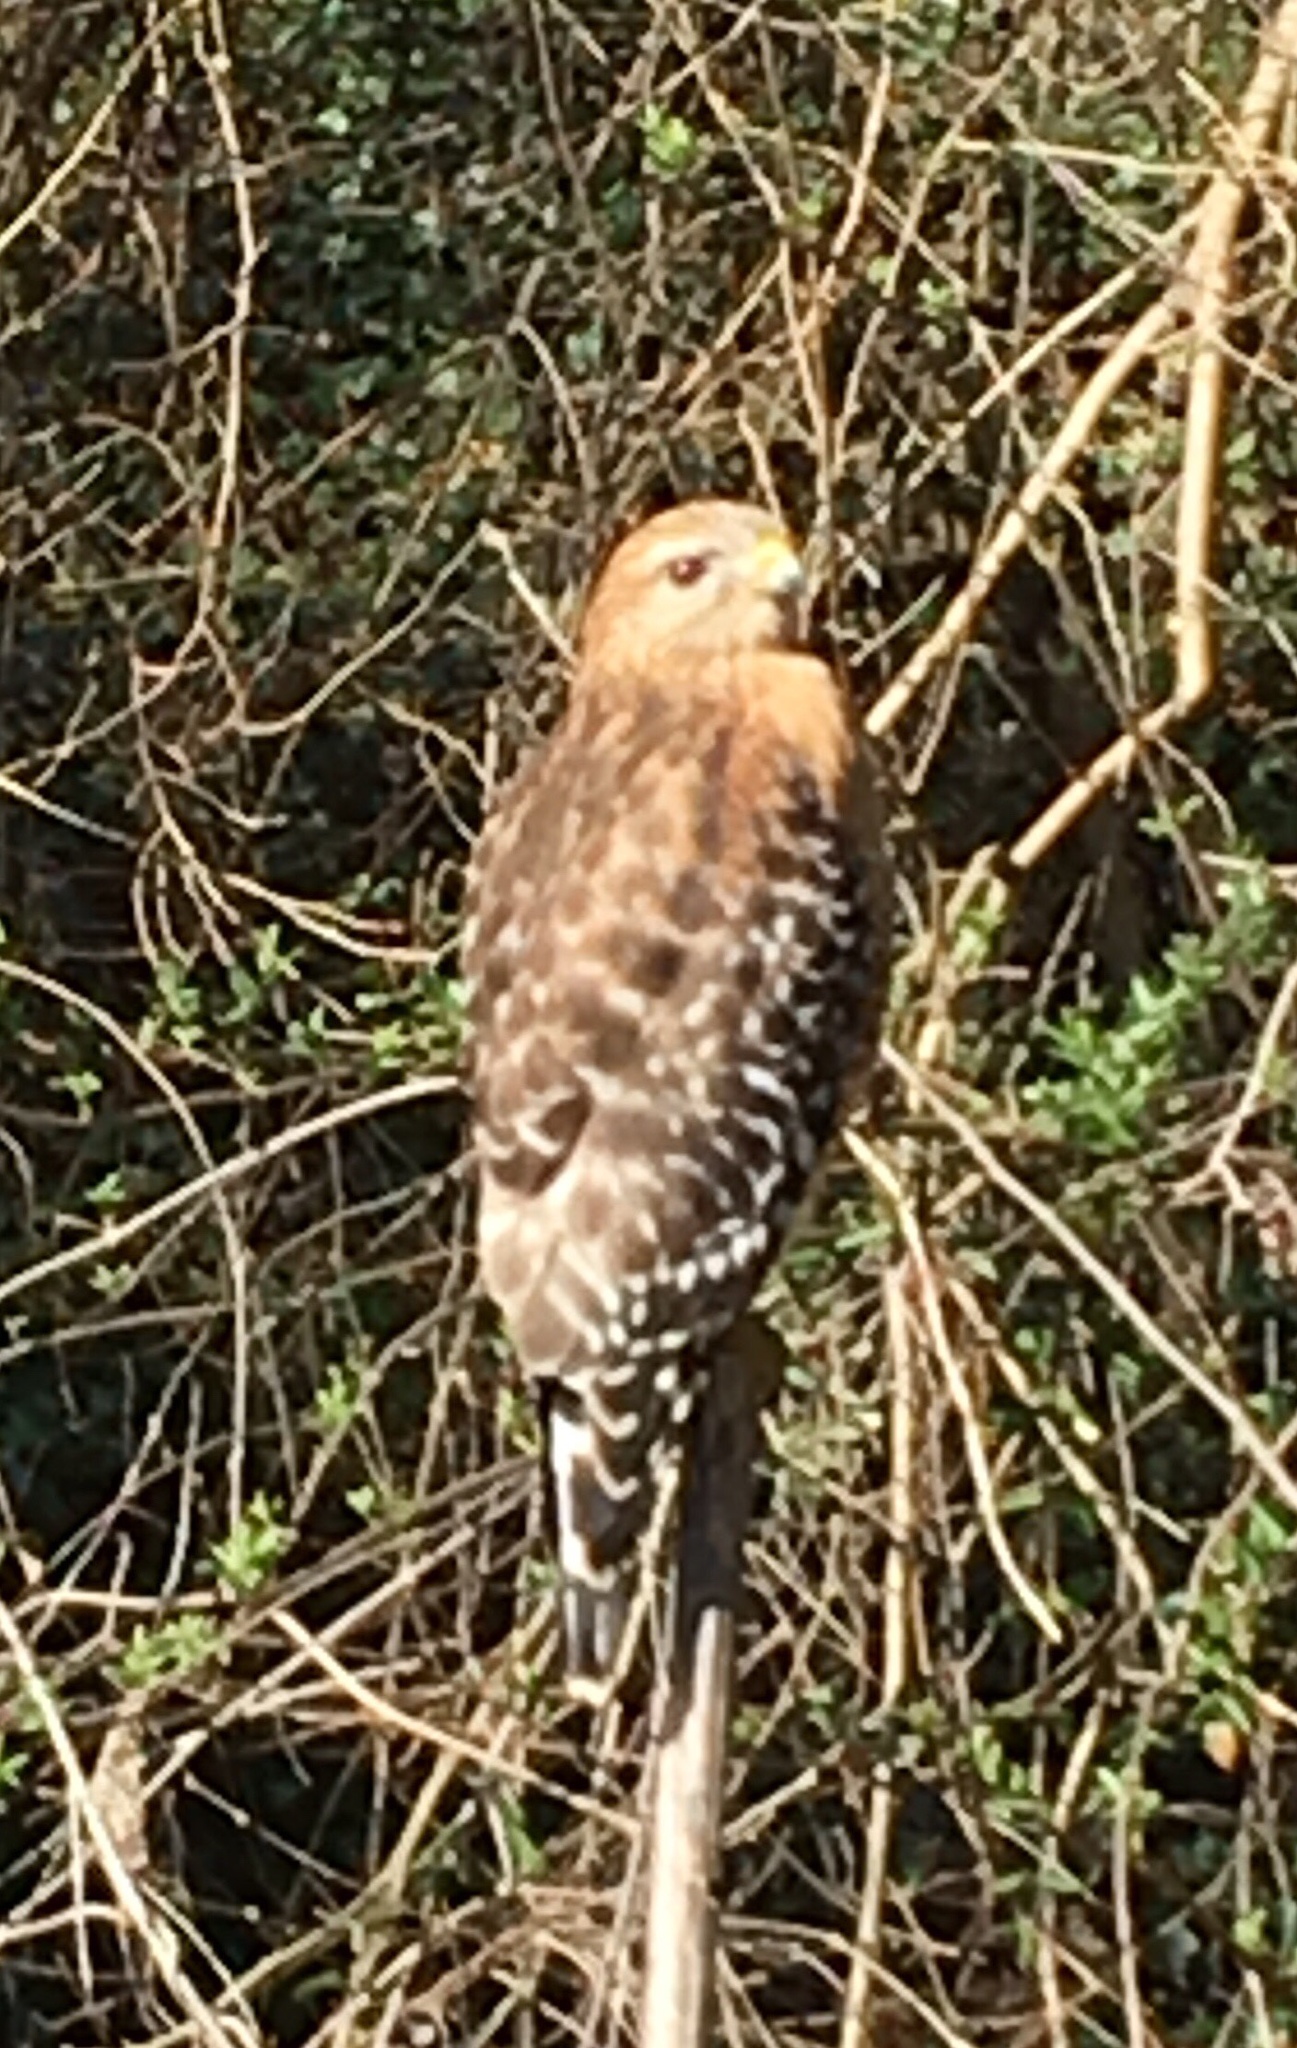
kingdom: Animalia
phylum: Chordata
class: Aves
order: Accipitriformes
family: Accipitridae
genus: Buteo
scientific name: Buteo lineatus
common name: Red-shouldered hawk
